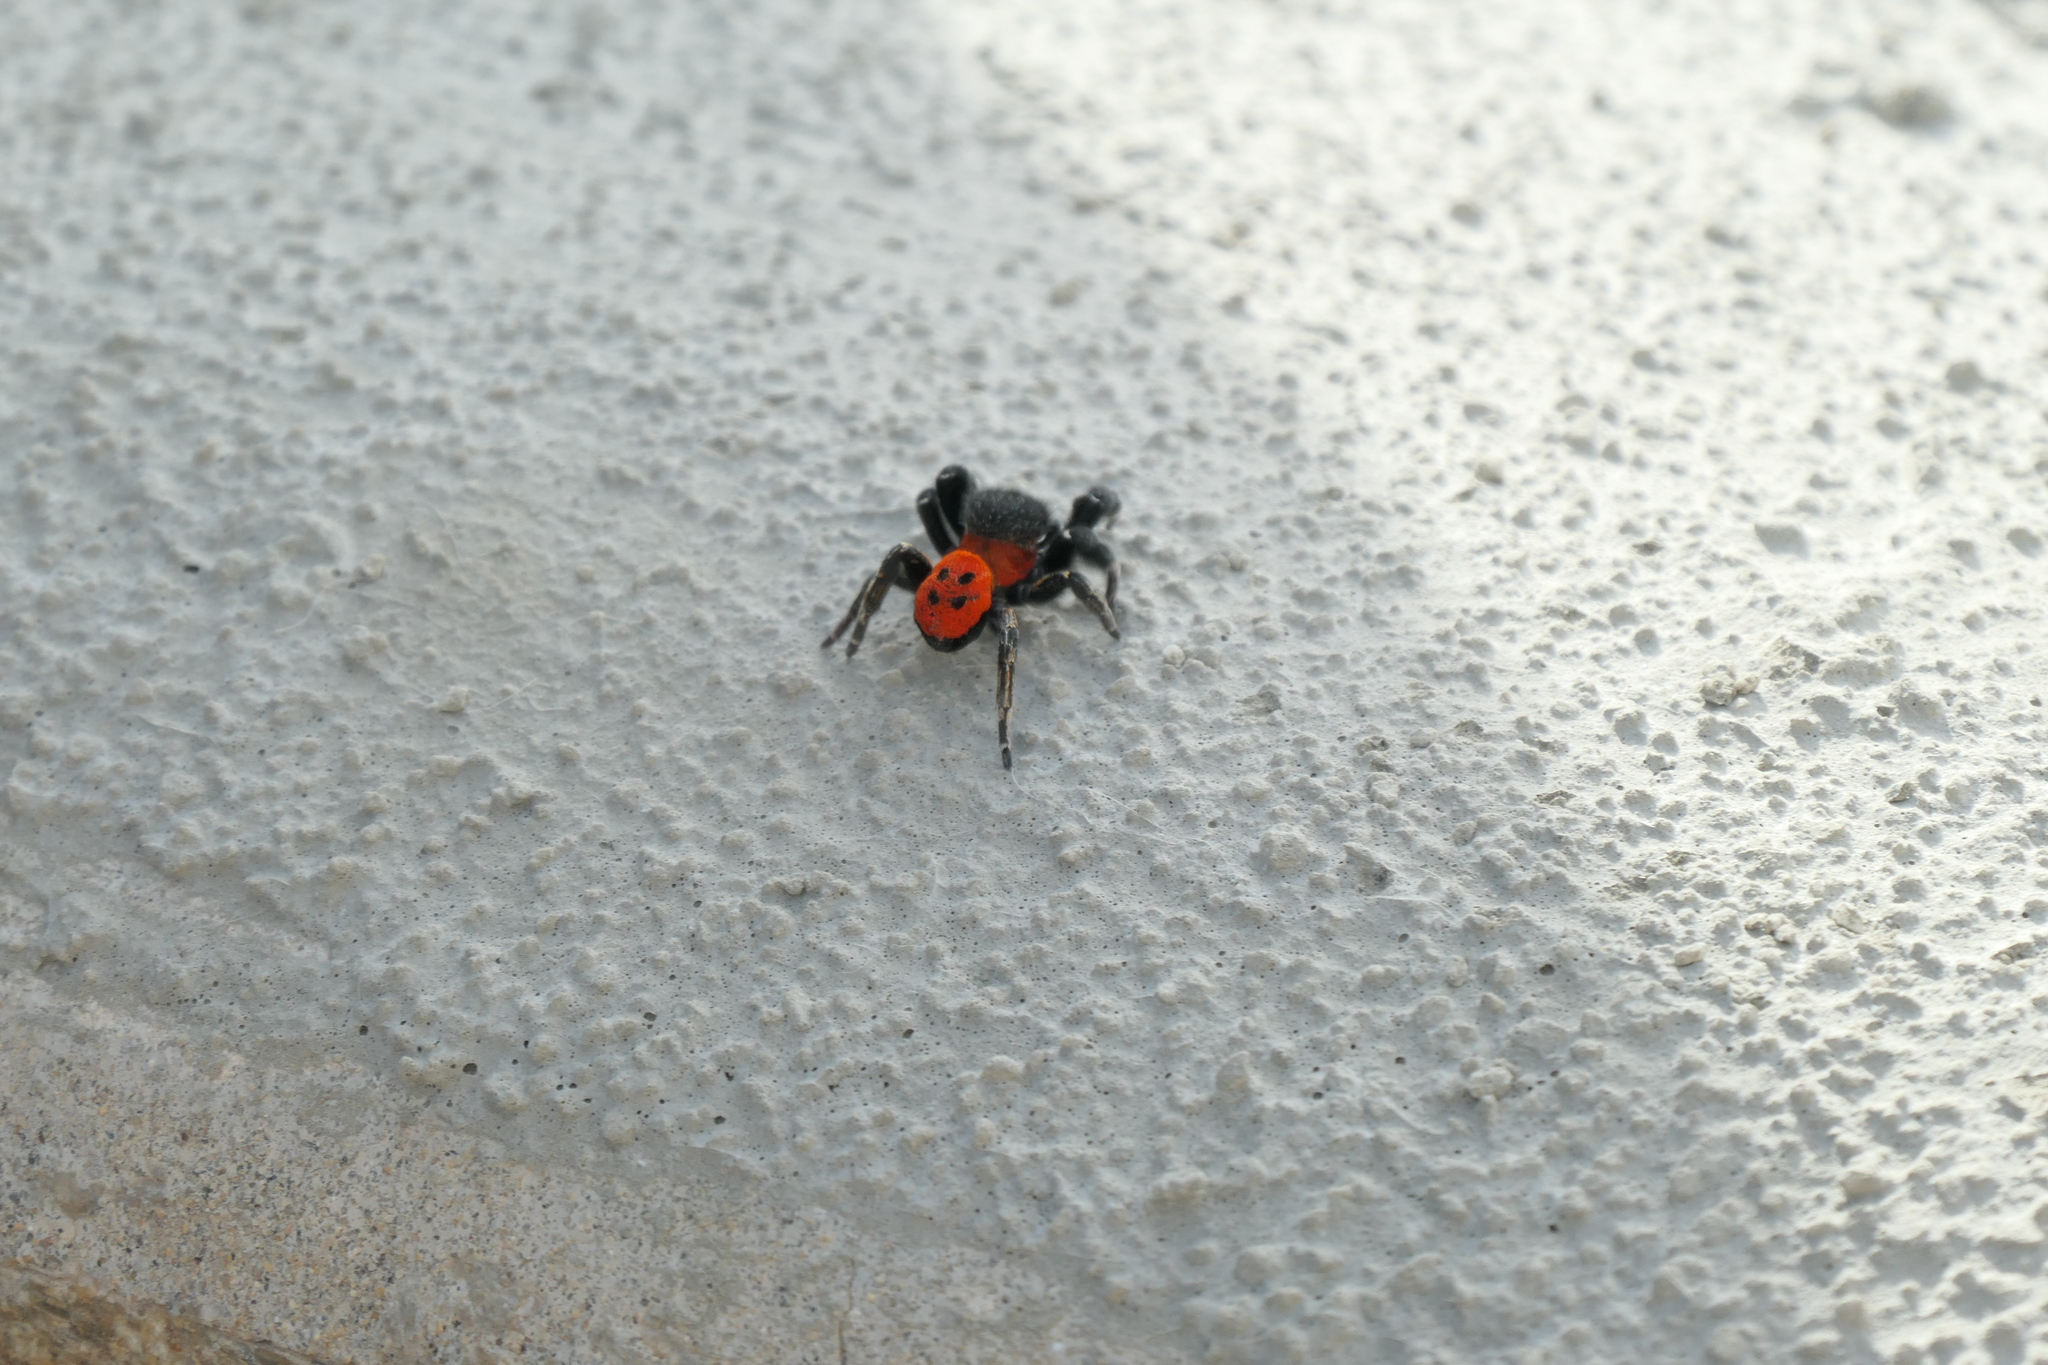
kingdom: Animalia
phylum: Arthropoda
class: Arachnida
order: Araneae
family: Eresidae
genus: Eresus
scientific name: Eresus
